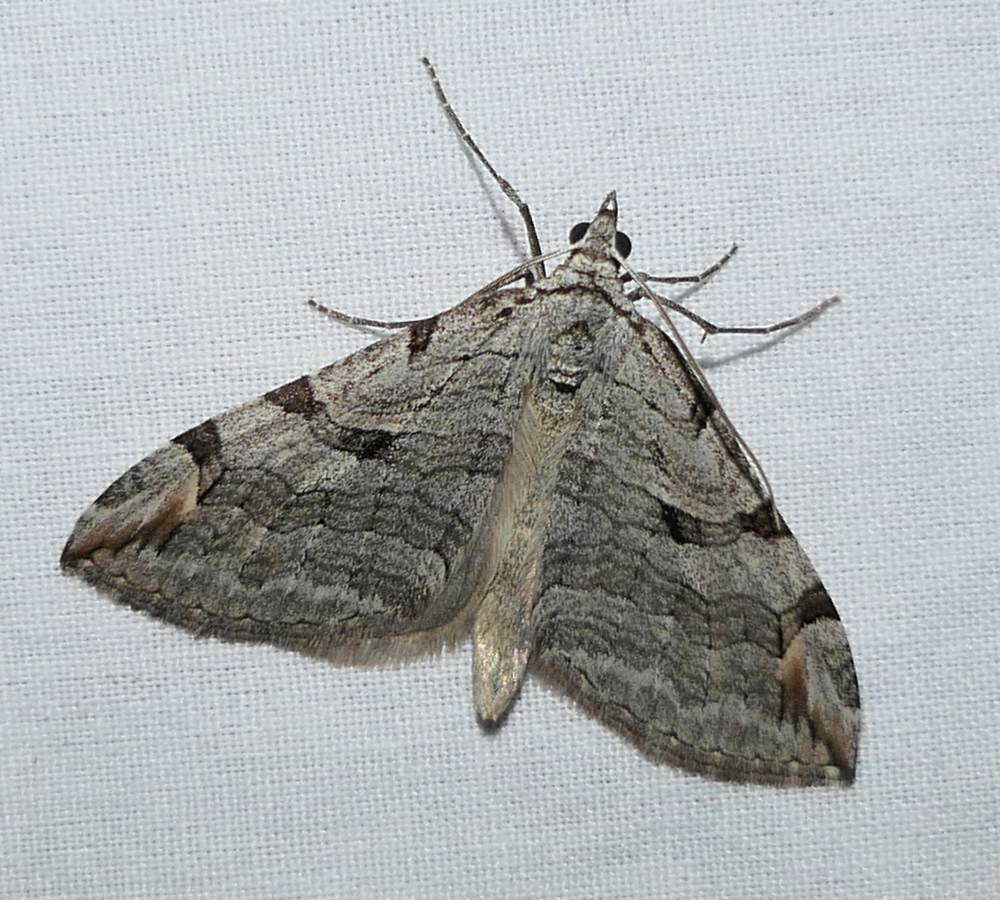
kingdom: Animalia
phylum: Arthropoda
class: Insecta
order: Lepidoptera
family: Geometridae
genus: Aplocera
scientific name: Aplocera plagiata
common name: Treble-bar
